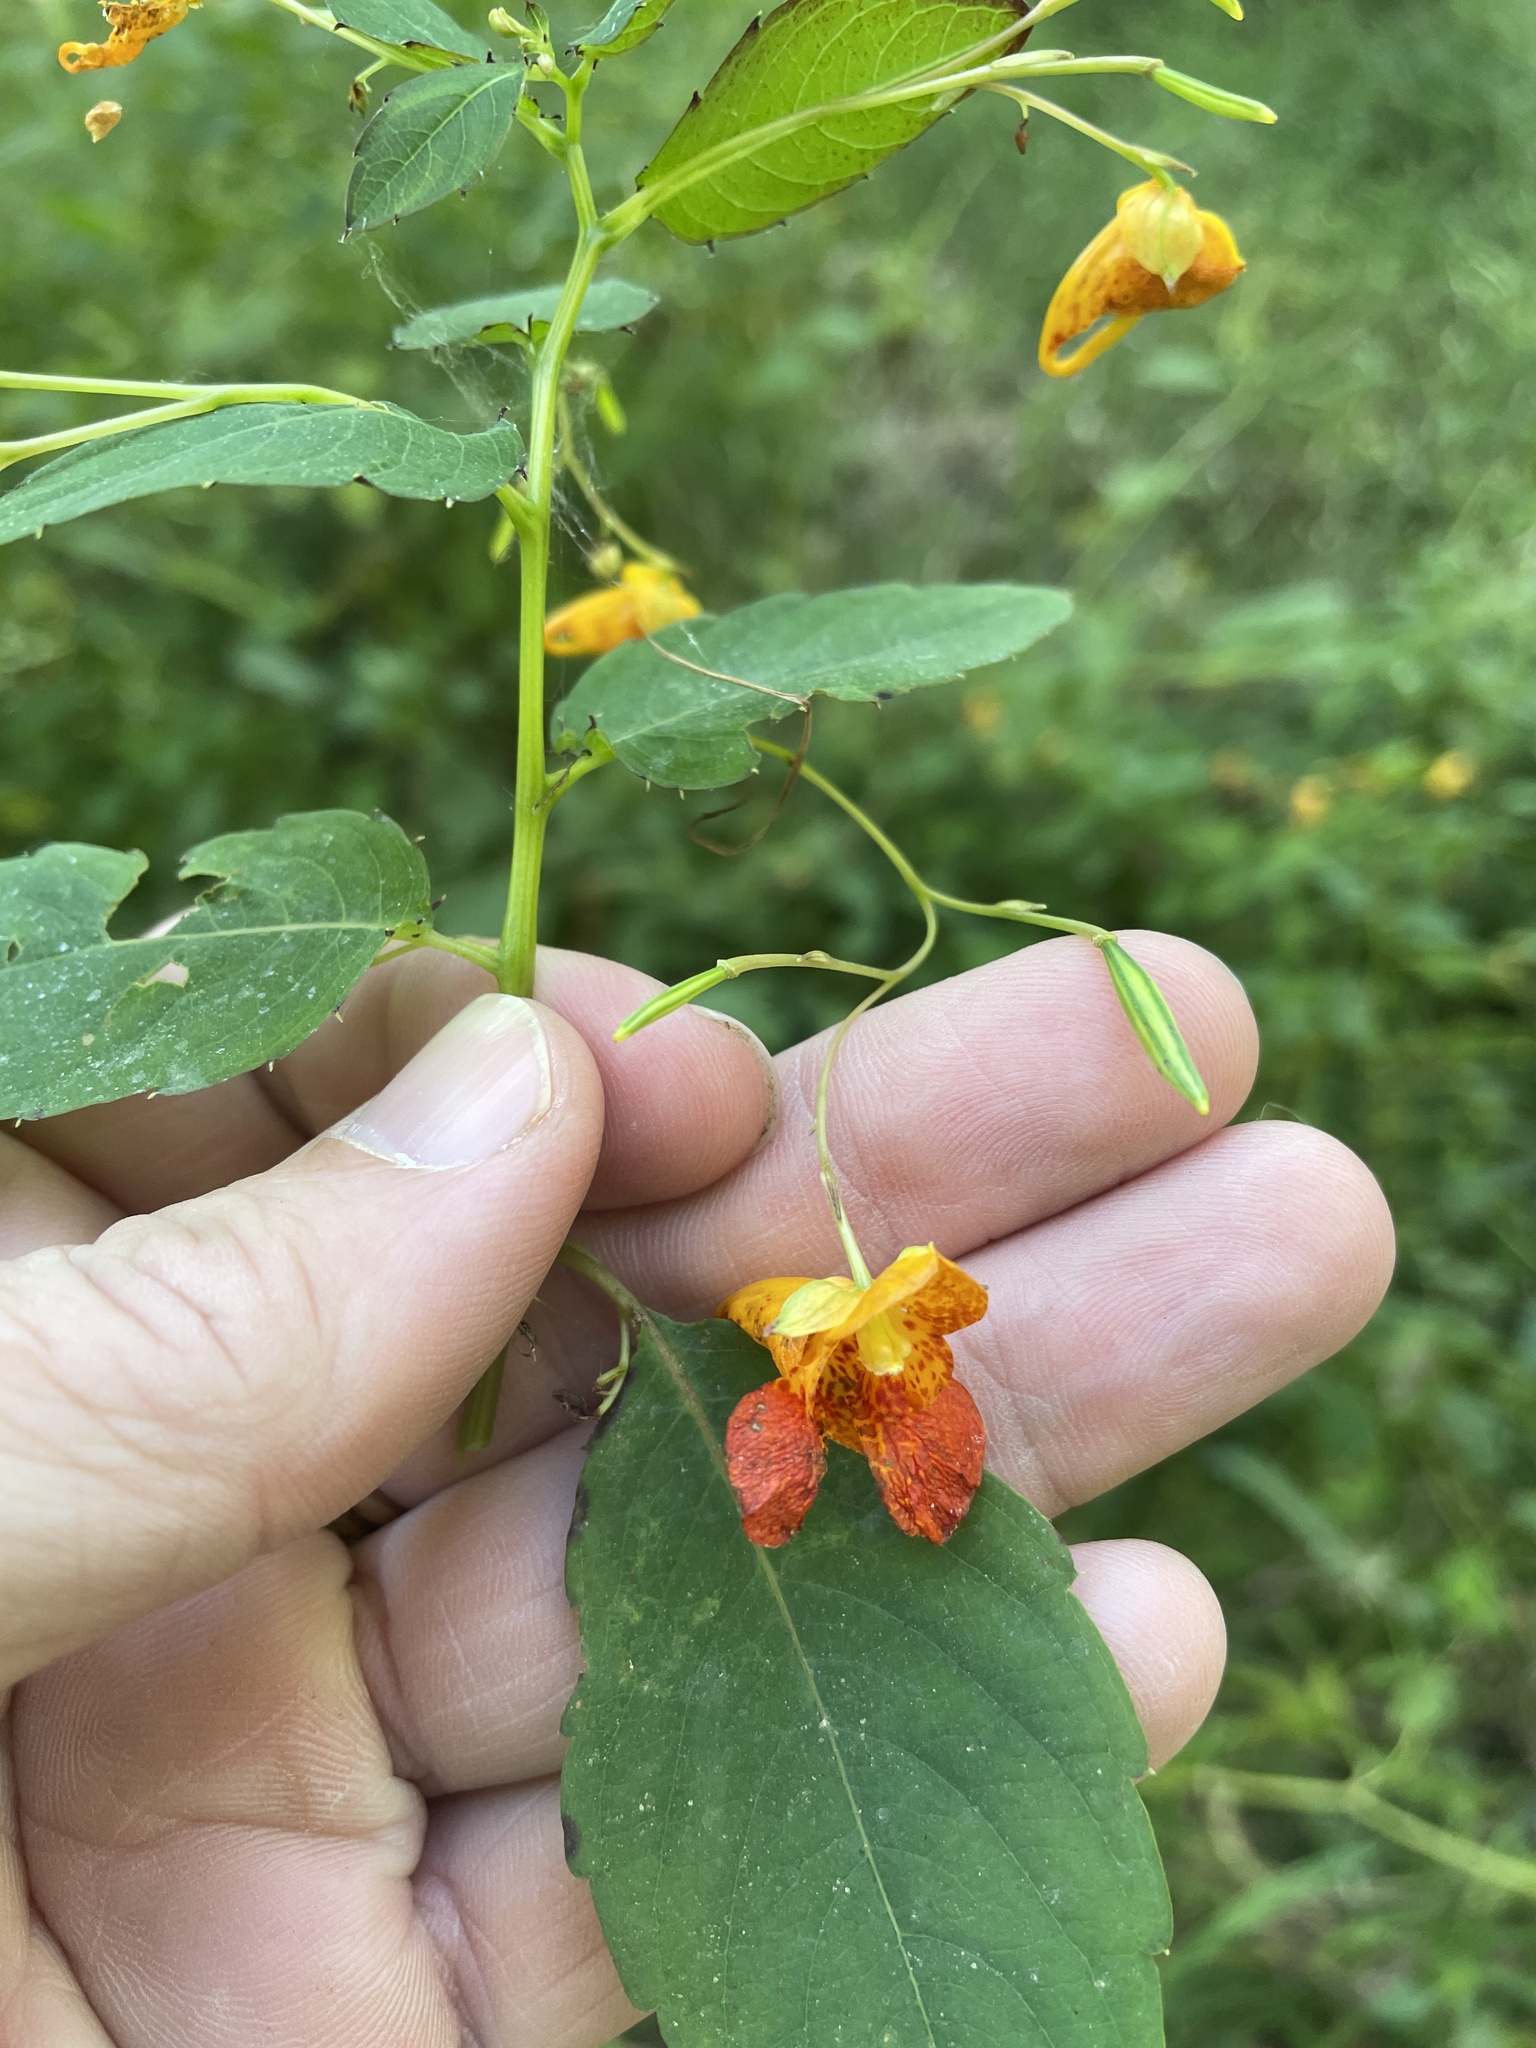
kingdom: Plantae
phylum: Tracheophyta
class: Magnoliopsida
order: Ericales
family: Balsaminaceae
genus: Impatiens
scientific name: Impatiens capensis
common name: Orange balsam
